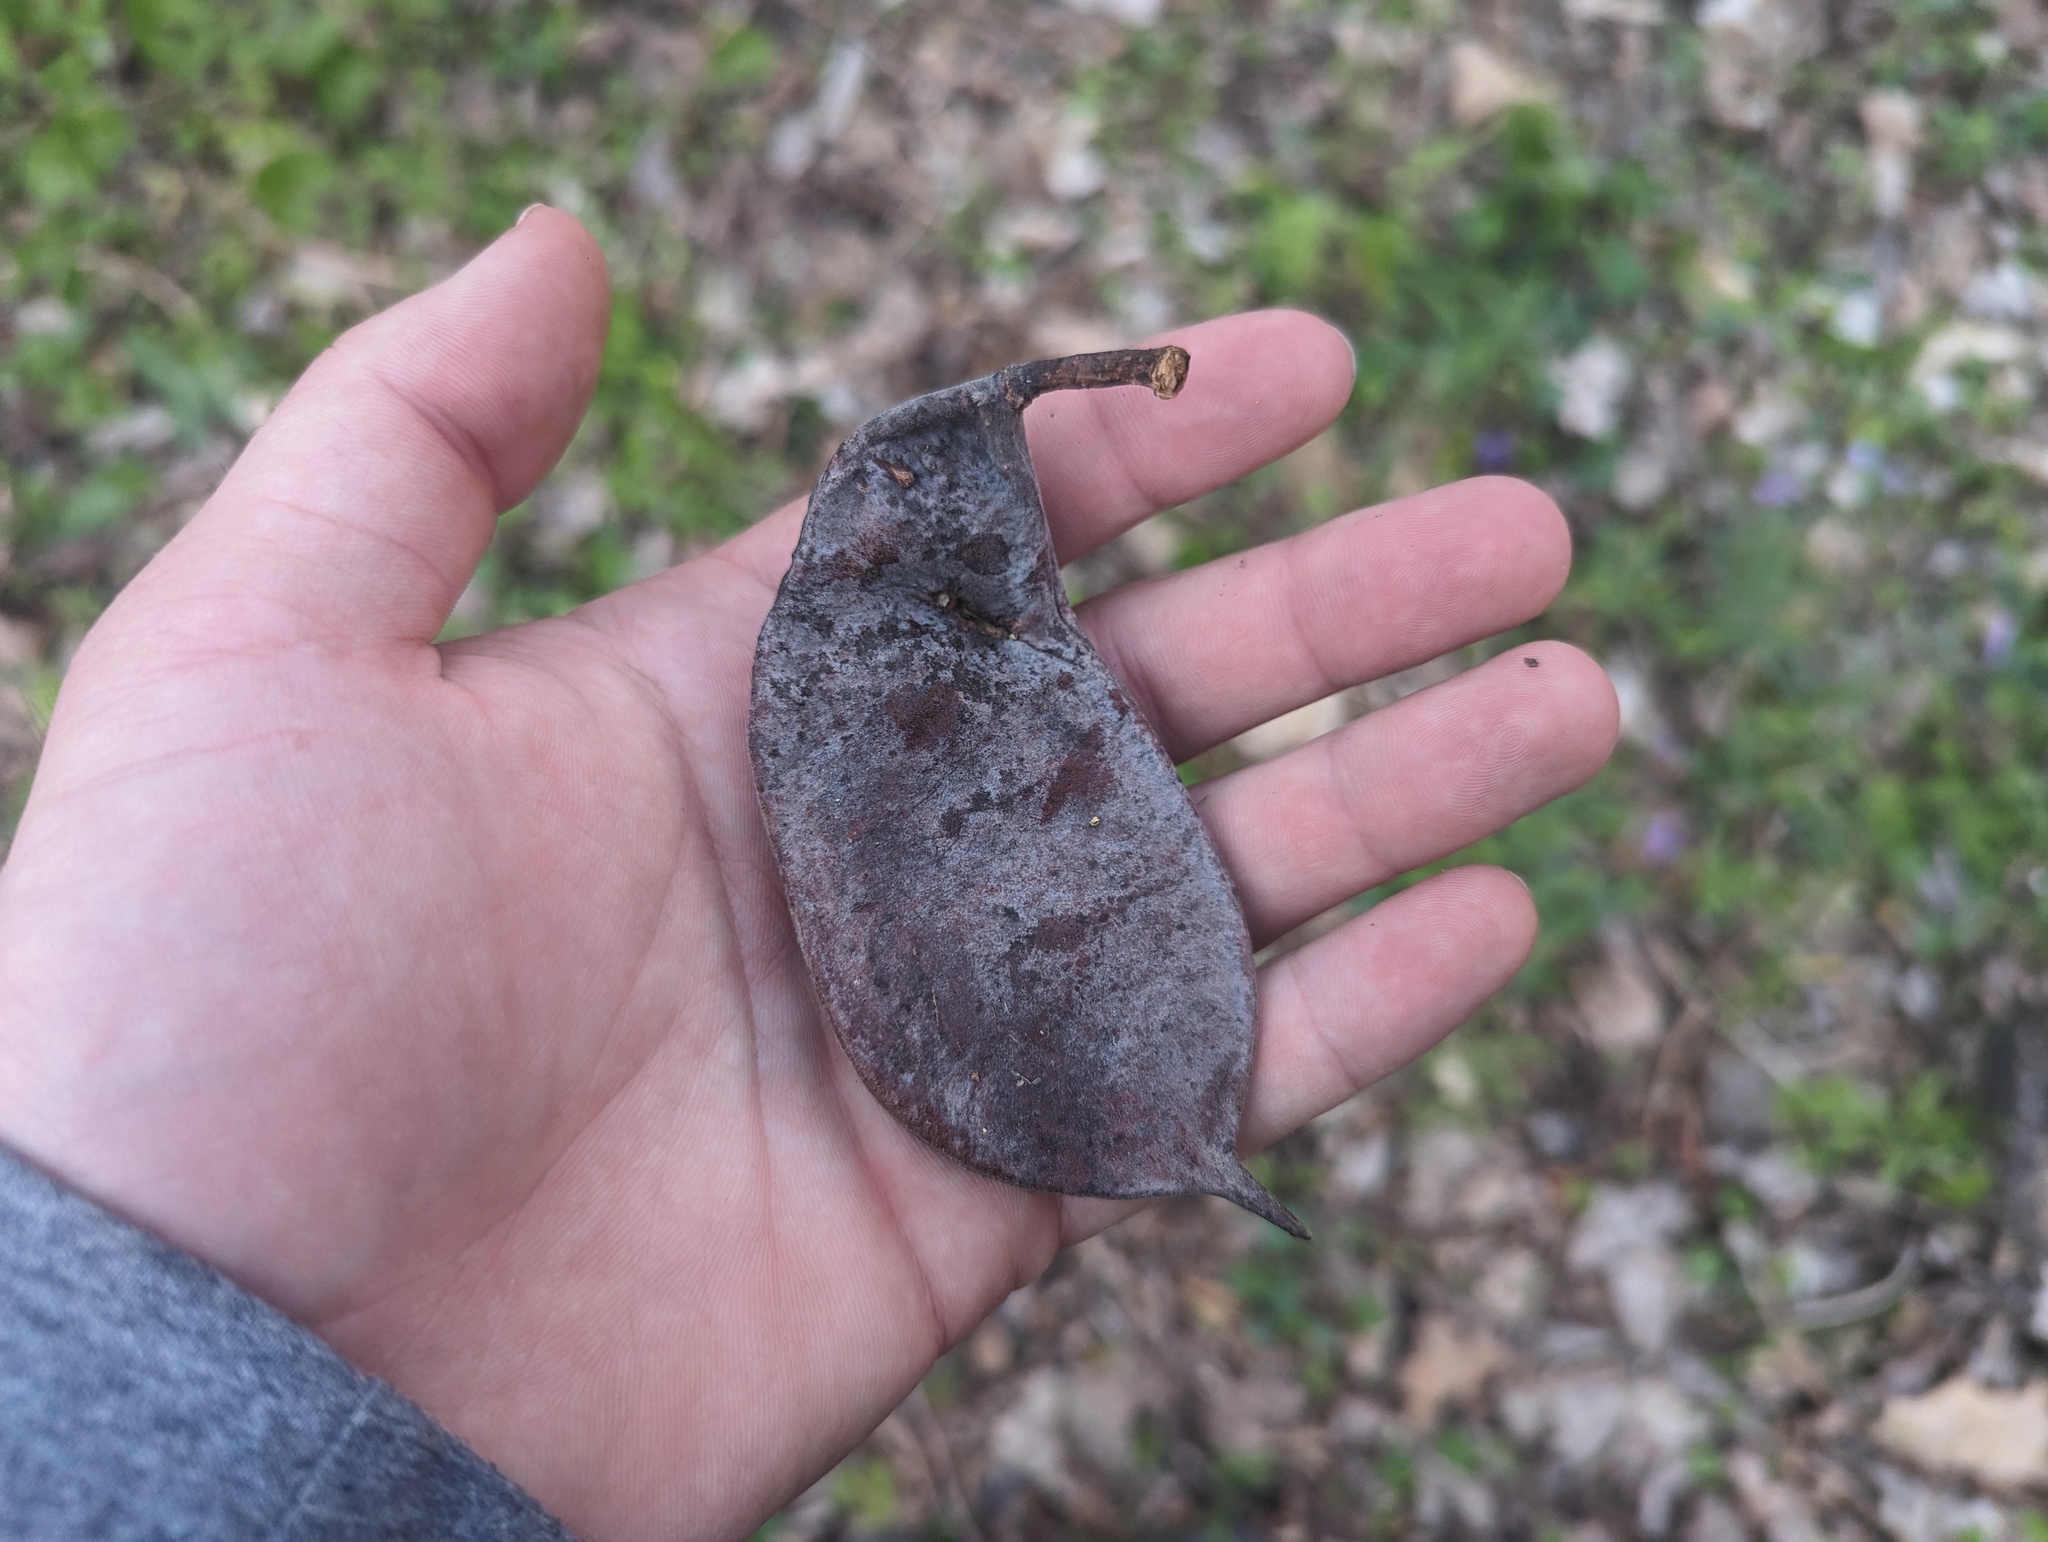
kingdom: Plantae
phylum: Tracheophyta
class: Magnoliopsida
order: Fabales
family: Fabaceae
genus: Gymnocladus
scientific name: Gymnocladus dioicus
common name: Kentucky coffee-tree
